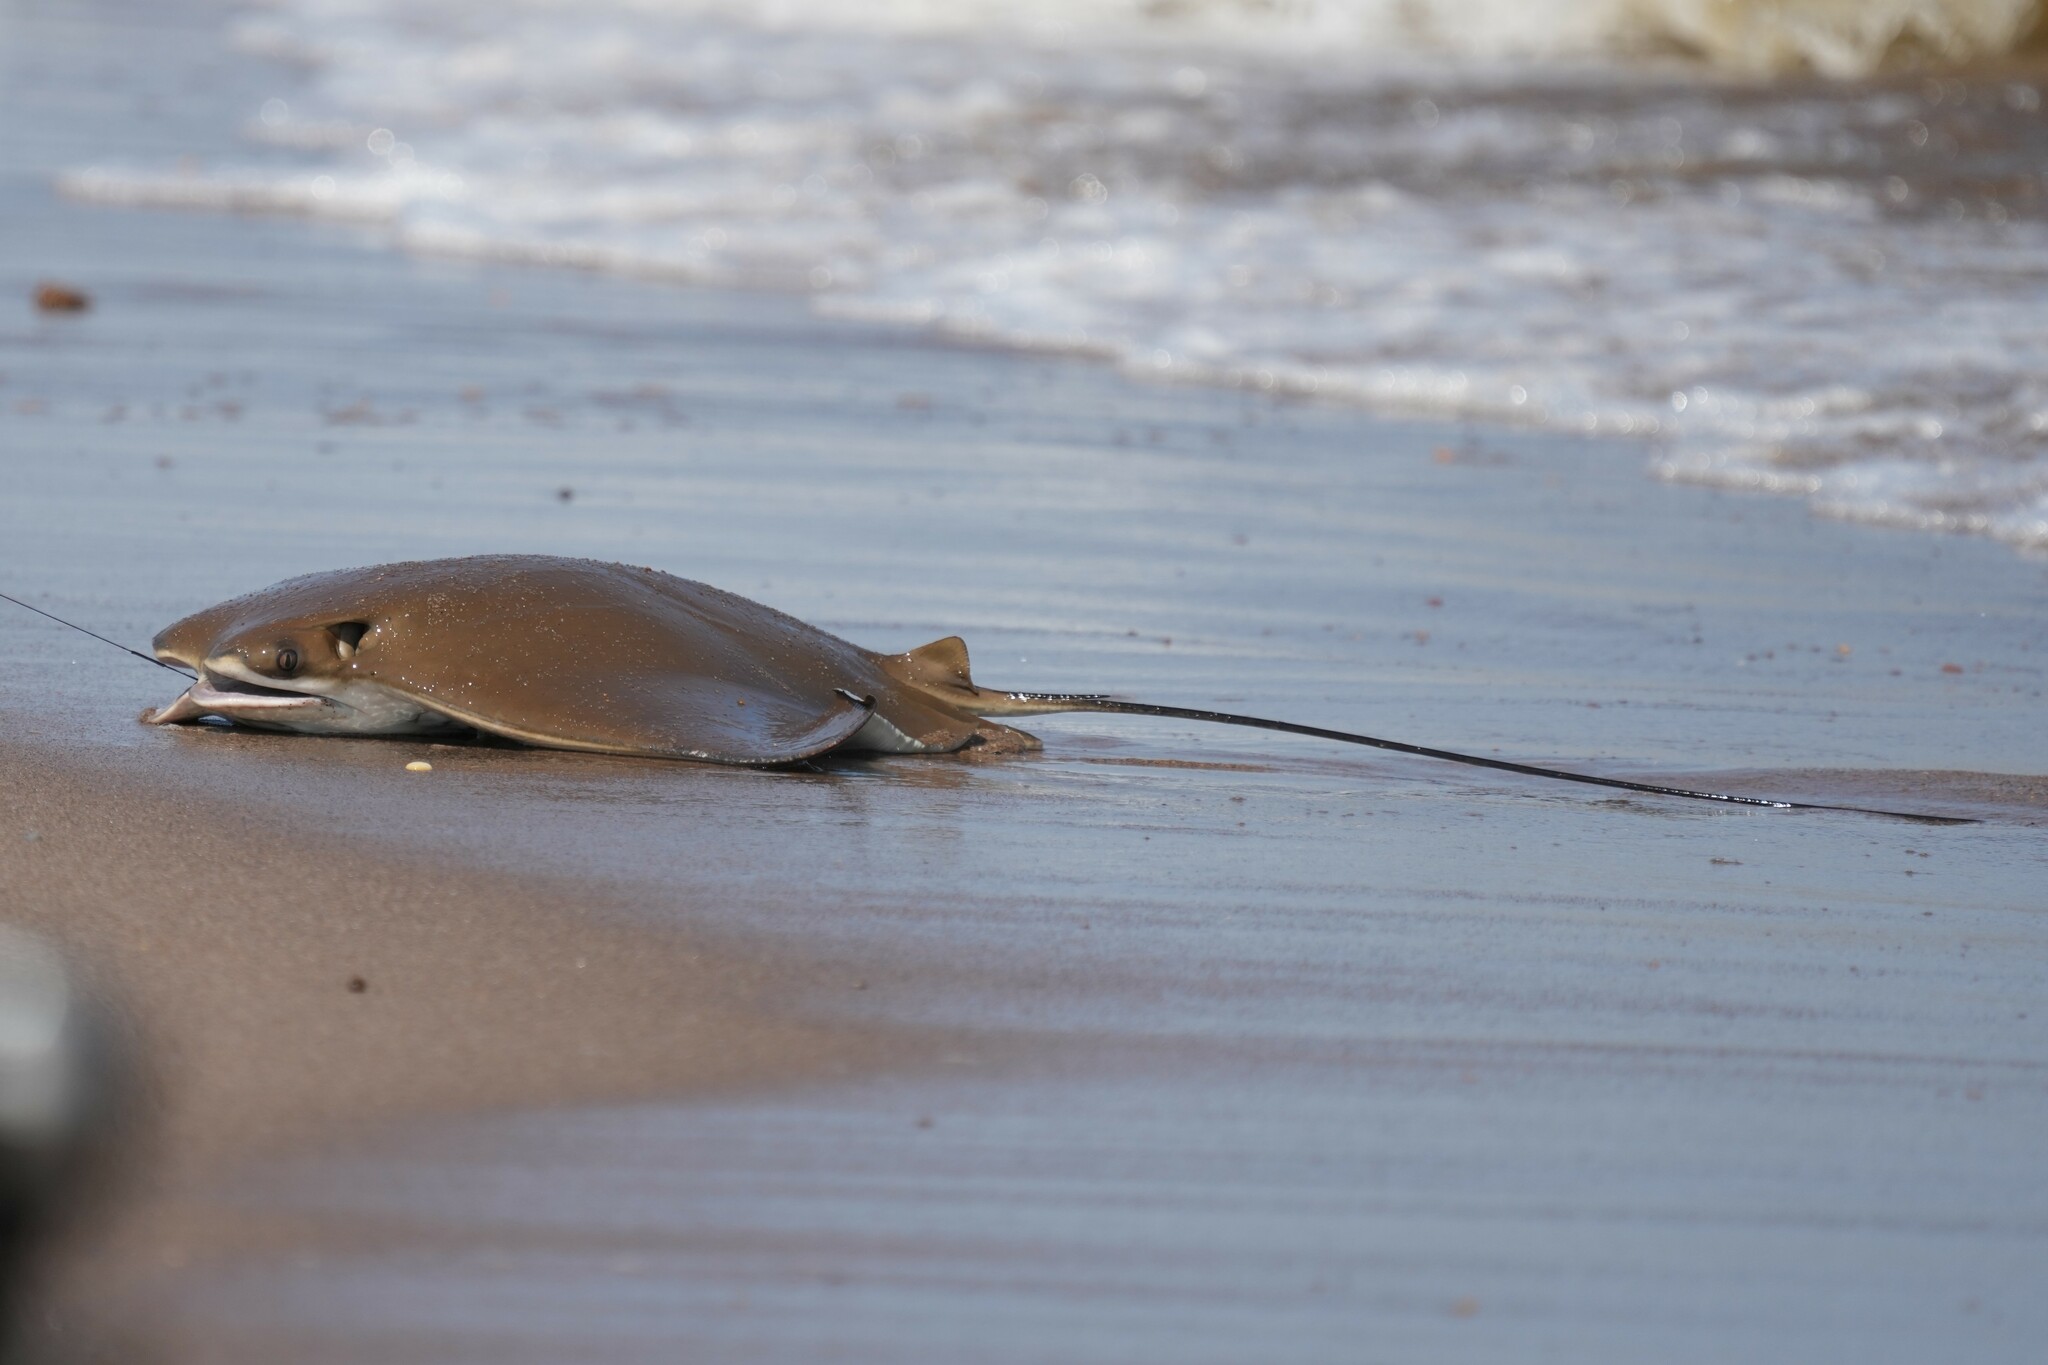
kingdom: Animalia
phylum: Chordata
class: Elasmobranchii
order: Myliobatiformes
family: Myliobatidae
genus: Rhinoptera
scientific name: Rhinoptera bonasus
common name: Cownose ray
